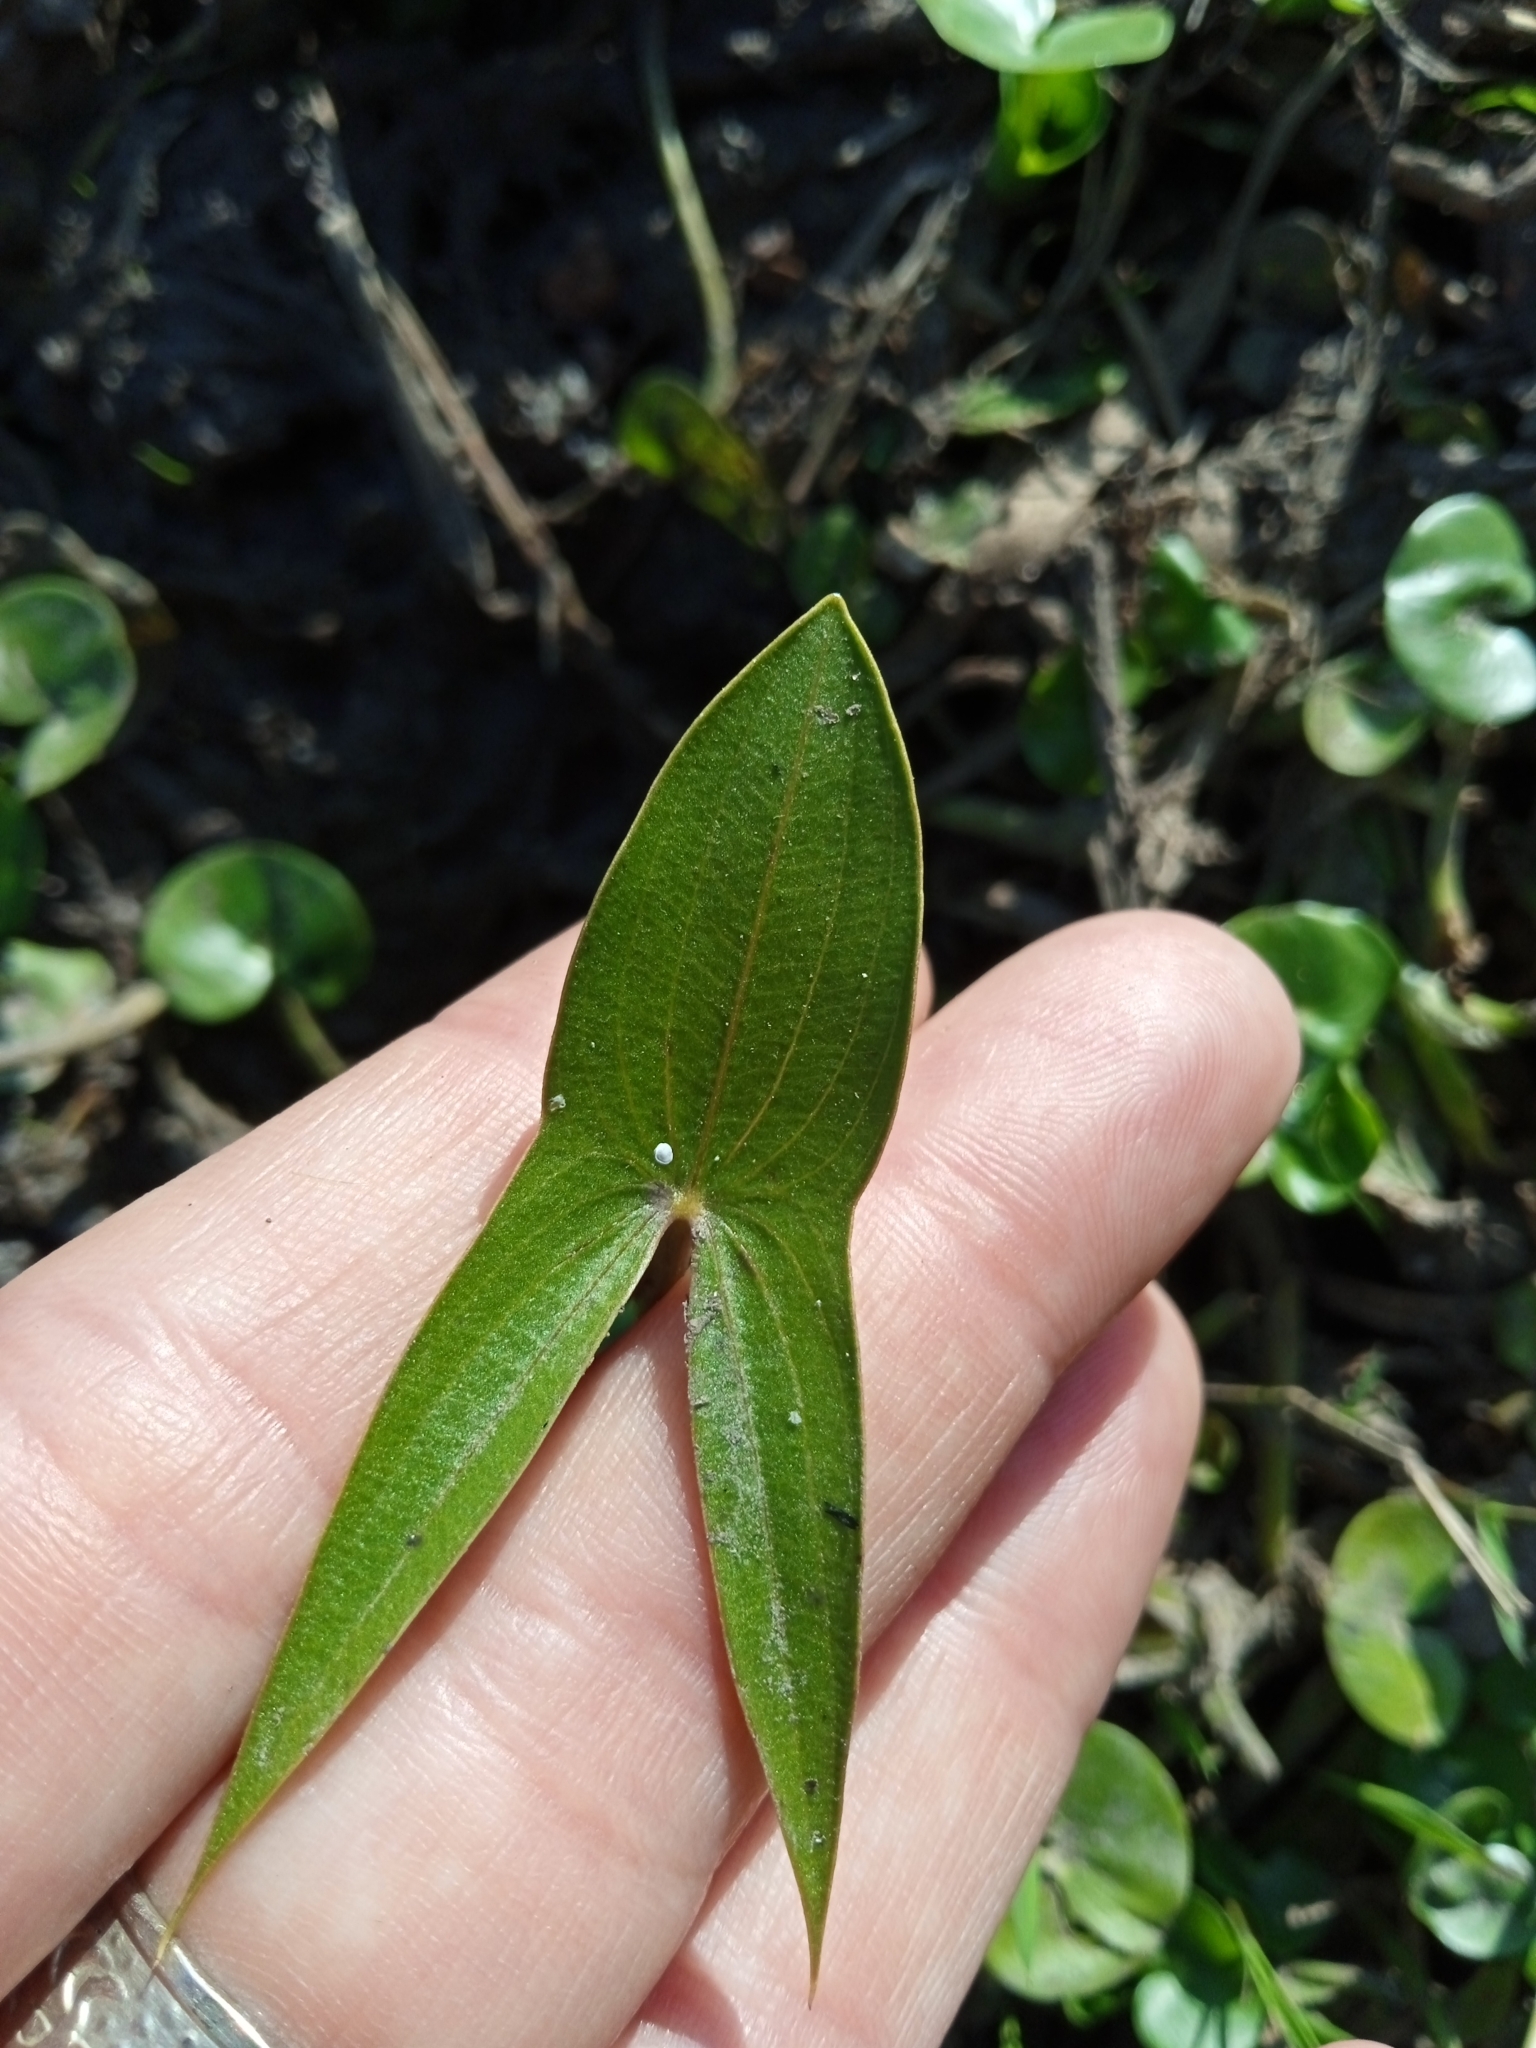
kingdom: Plantae
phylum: Tracheophyta
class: Liliopsida
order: Alismatales
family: Alismataceae
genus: Sagittaria
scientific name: Sagittaria montevidensis
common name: Giant arrowhead
